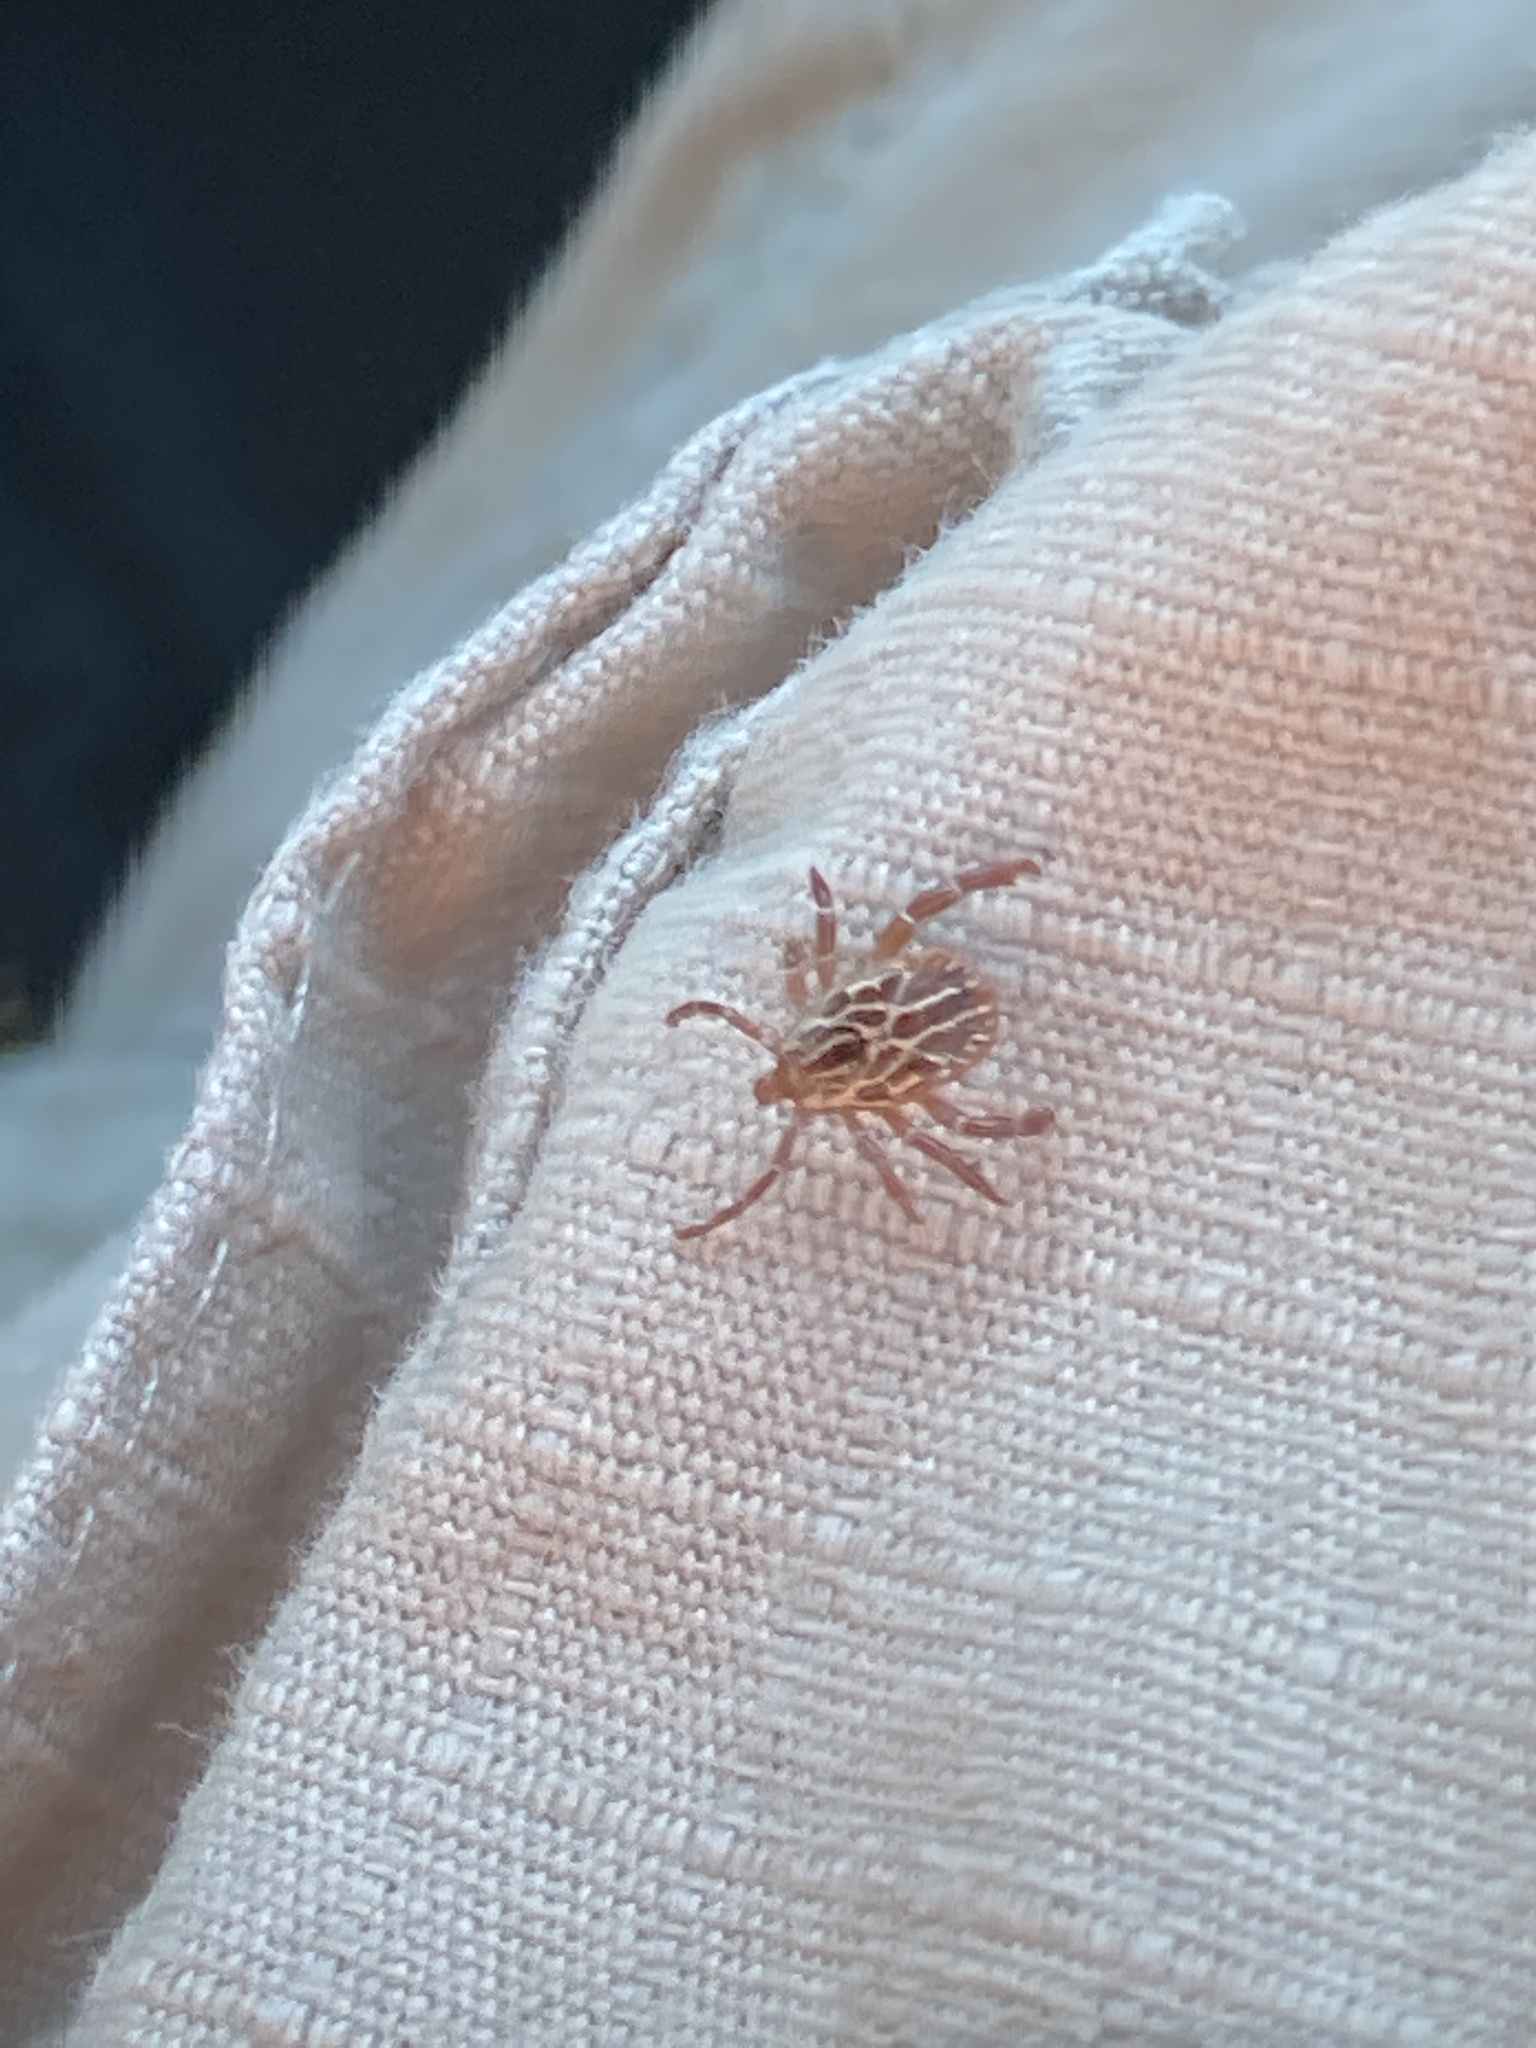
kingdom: Animalia
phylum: Arthropoda
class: Arachnida
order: Ixodida
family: Ixodidae
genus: Amblyomma
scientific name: Amblyomma maculatum
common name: Gulf coast tick
